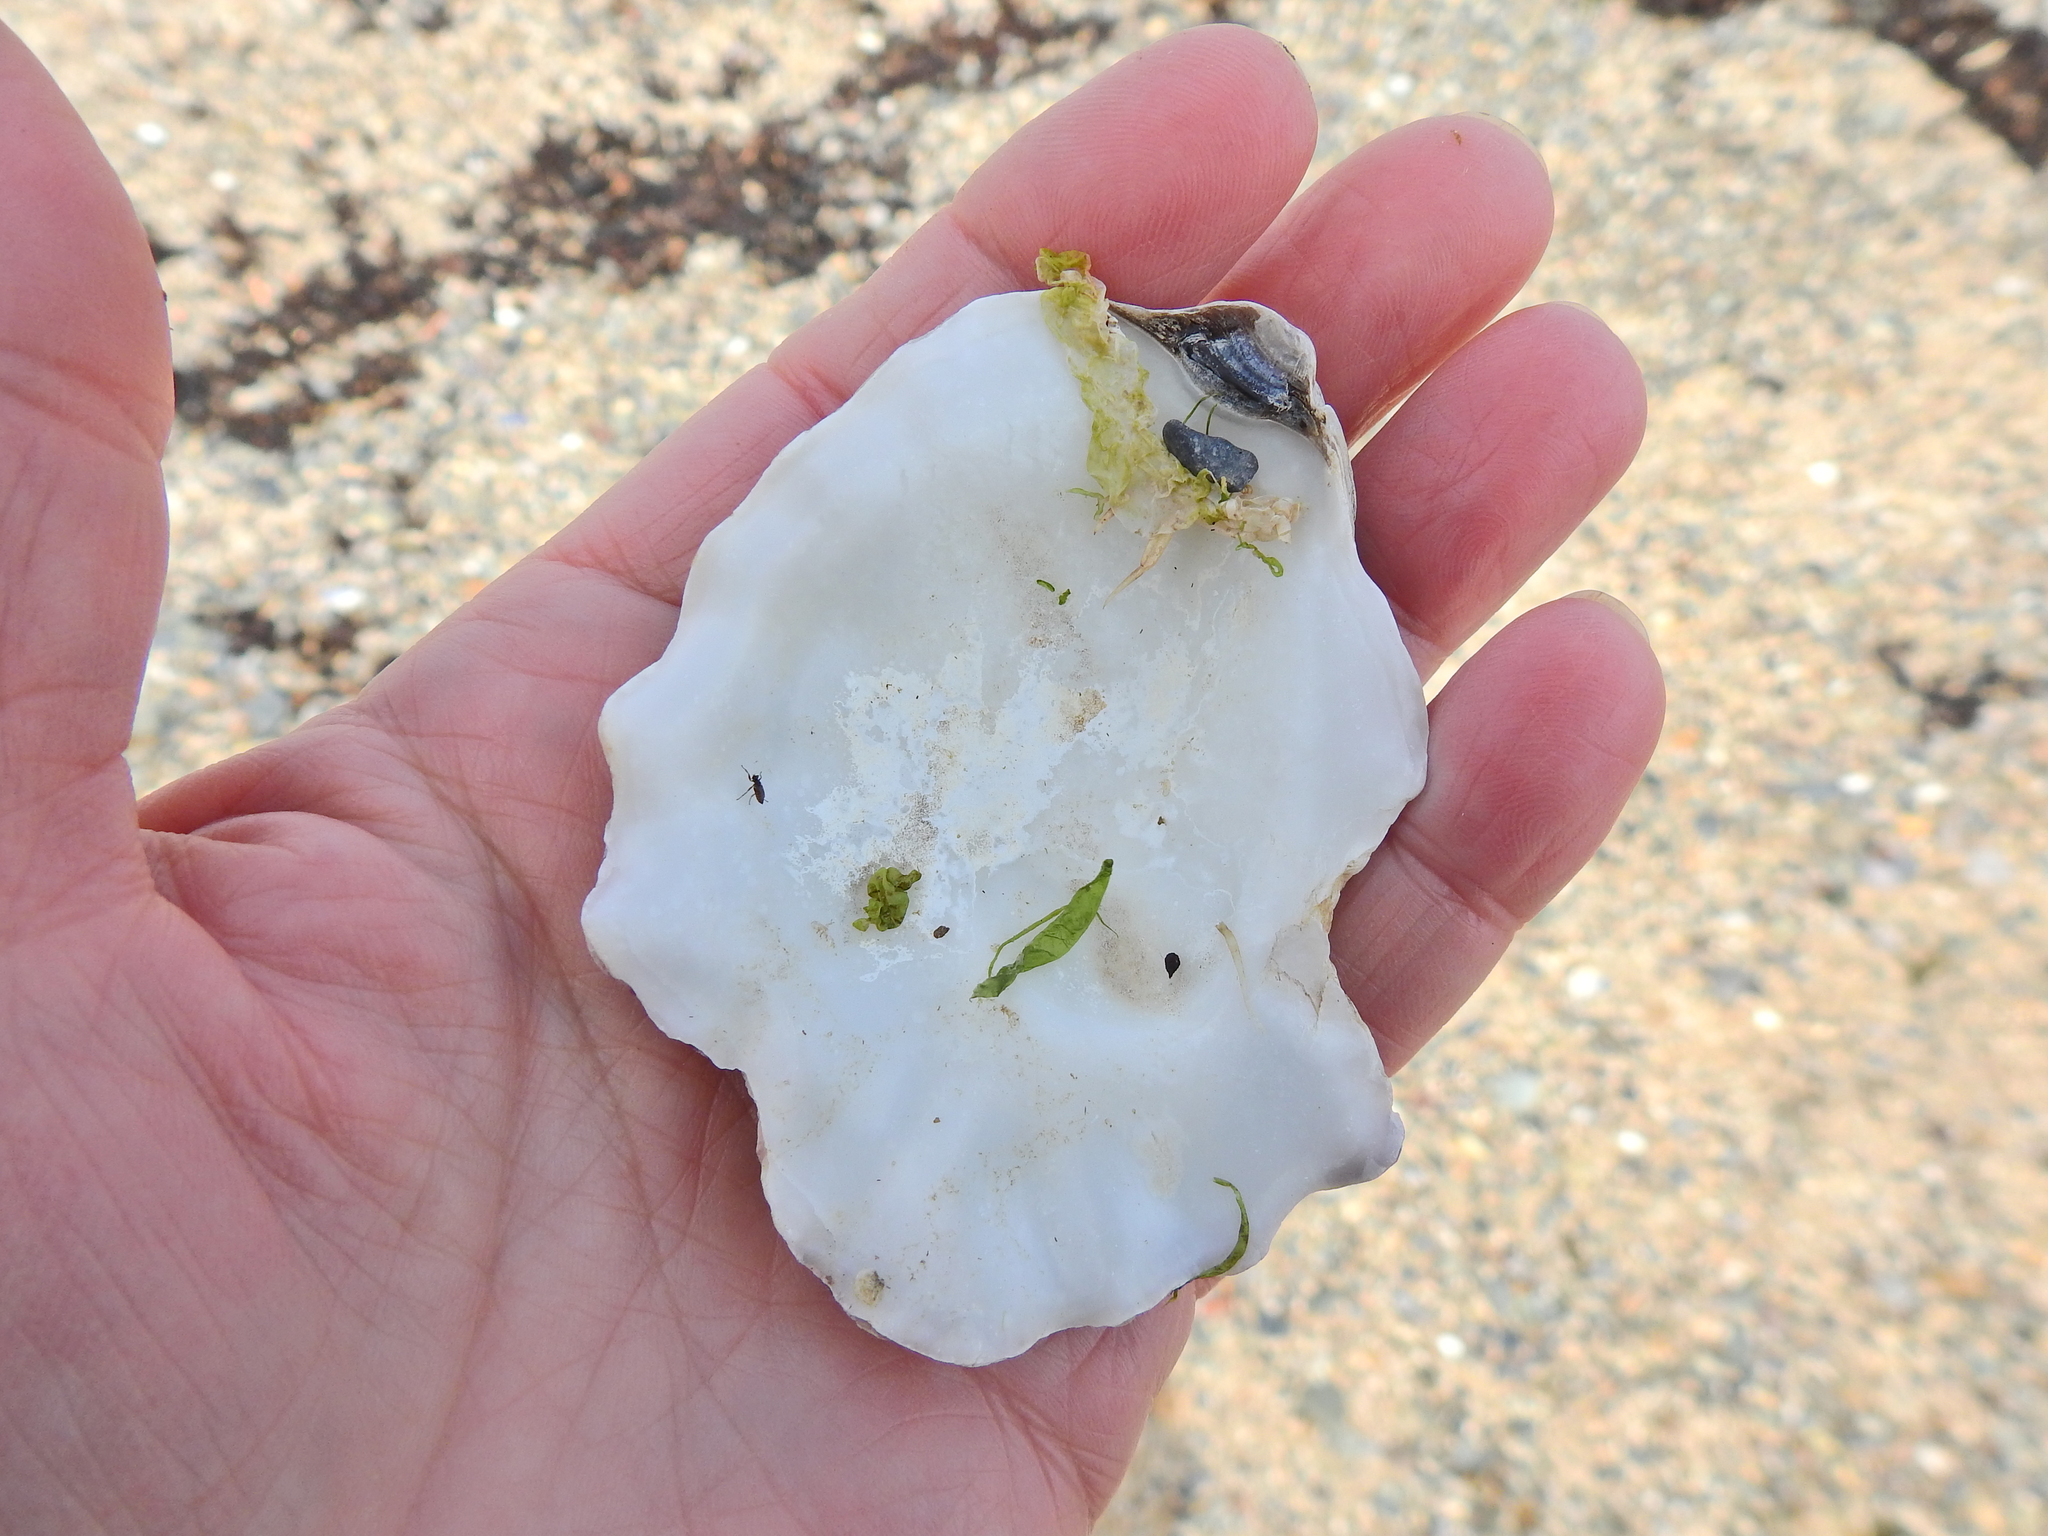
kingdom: Animalia
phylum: Mollusca
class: Bivalvia
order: Ostreida
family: Ostreidae
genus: Magallana
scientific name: Magallana gigas
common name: Pacific oyster
